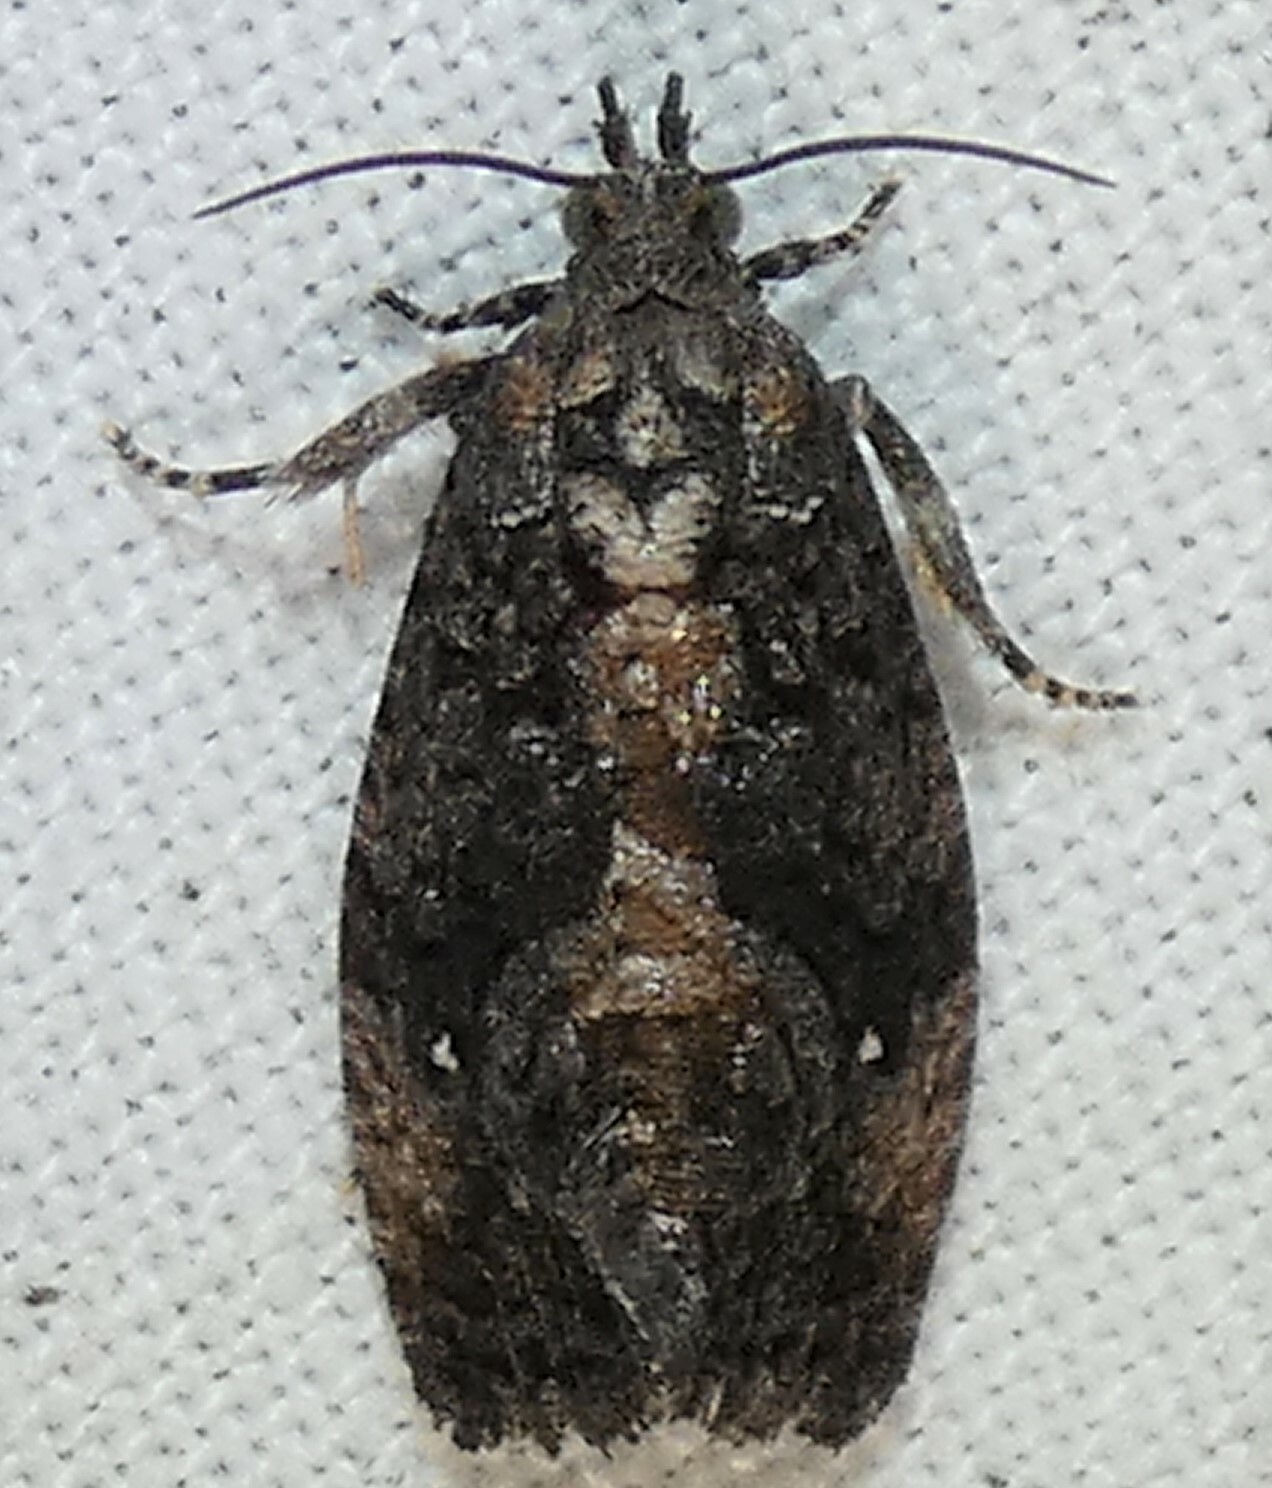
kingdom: Animalia
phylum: Arthropoda
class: Insecta
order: Lepidoptera
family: Tortricidae
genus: Gymnandrosoma
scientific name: Gymnandrosoma punctidiscanum
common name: Dotted ecdytolopha moth
